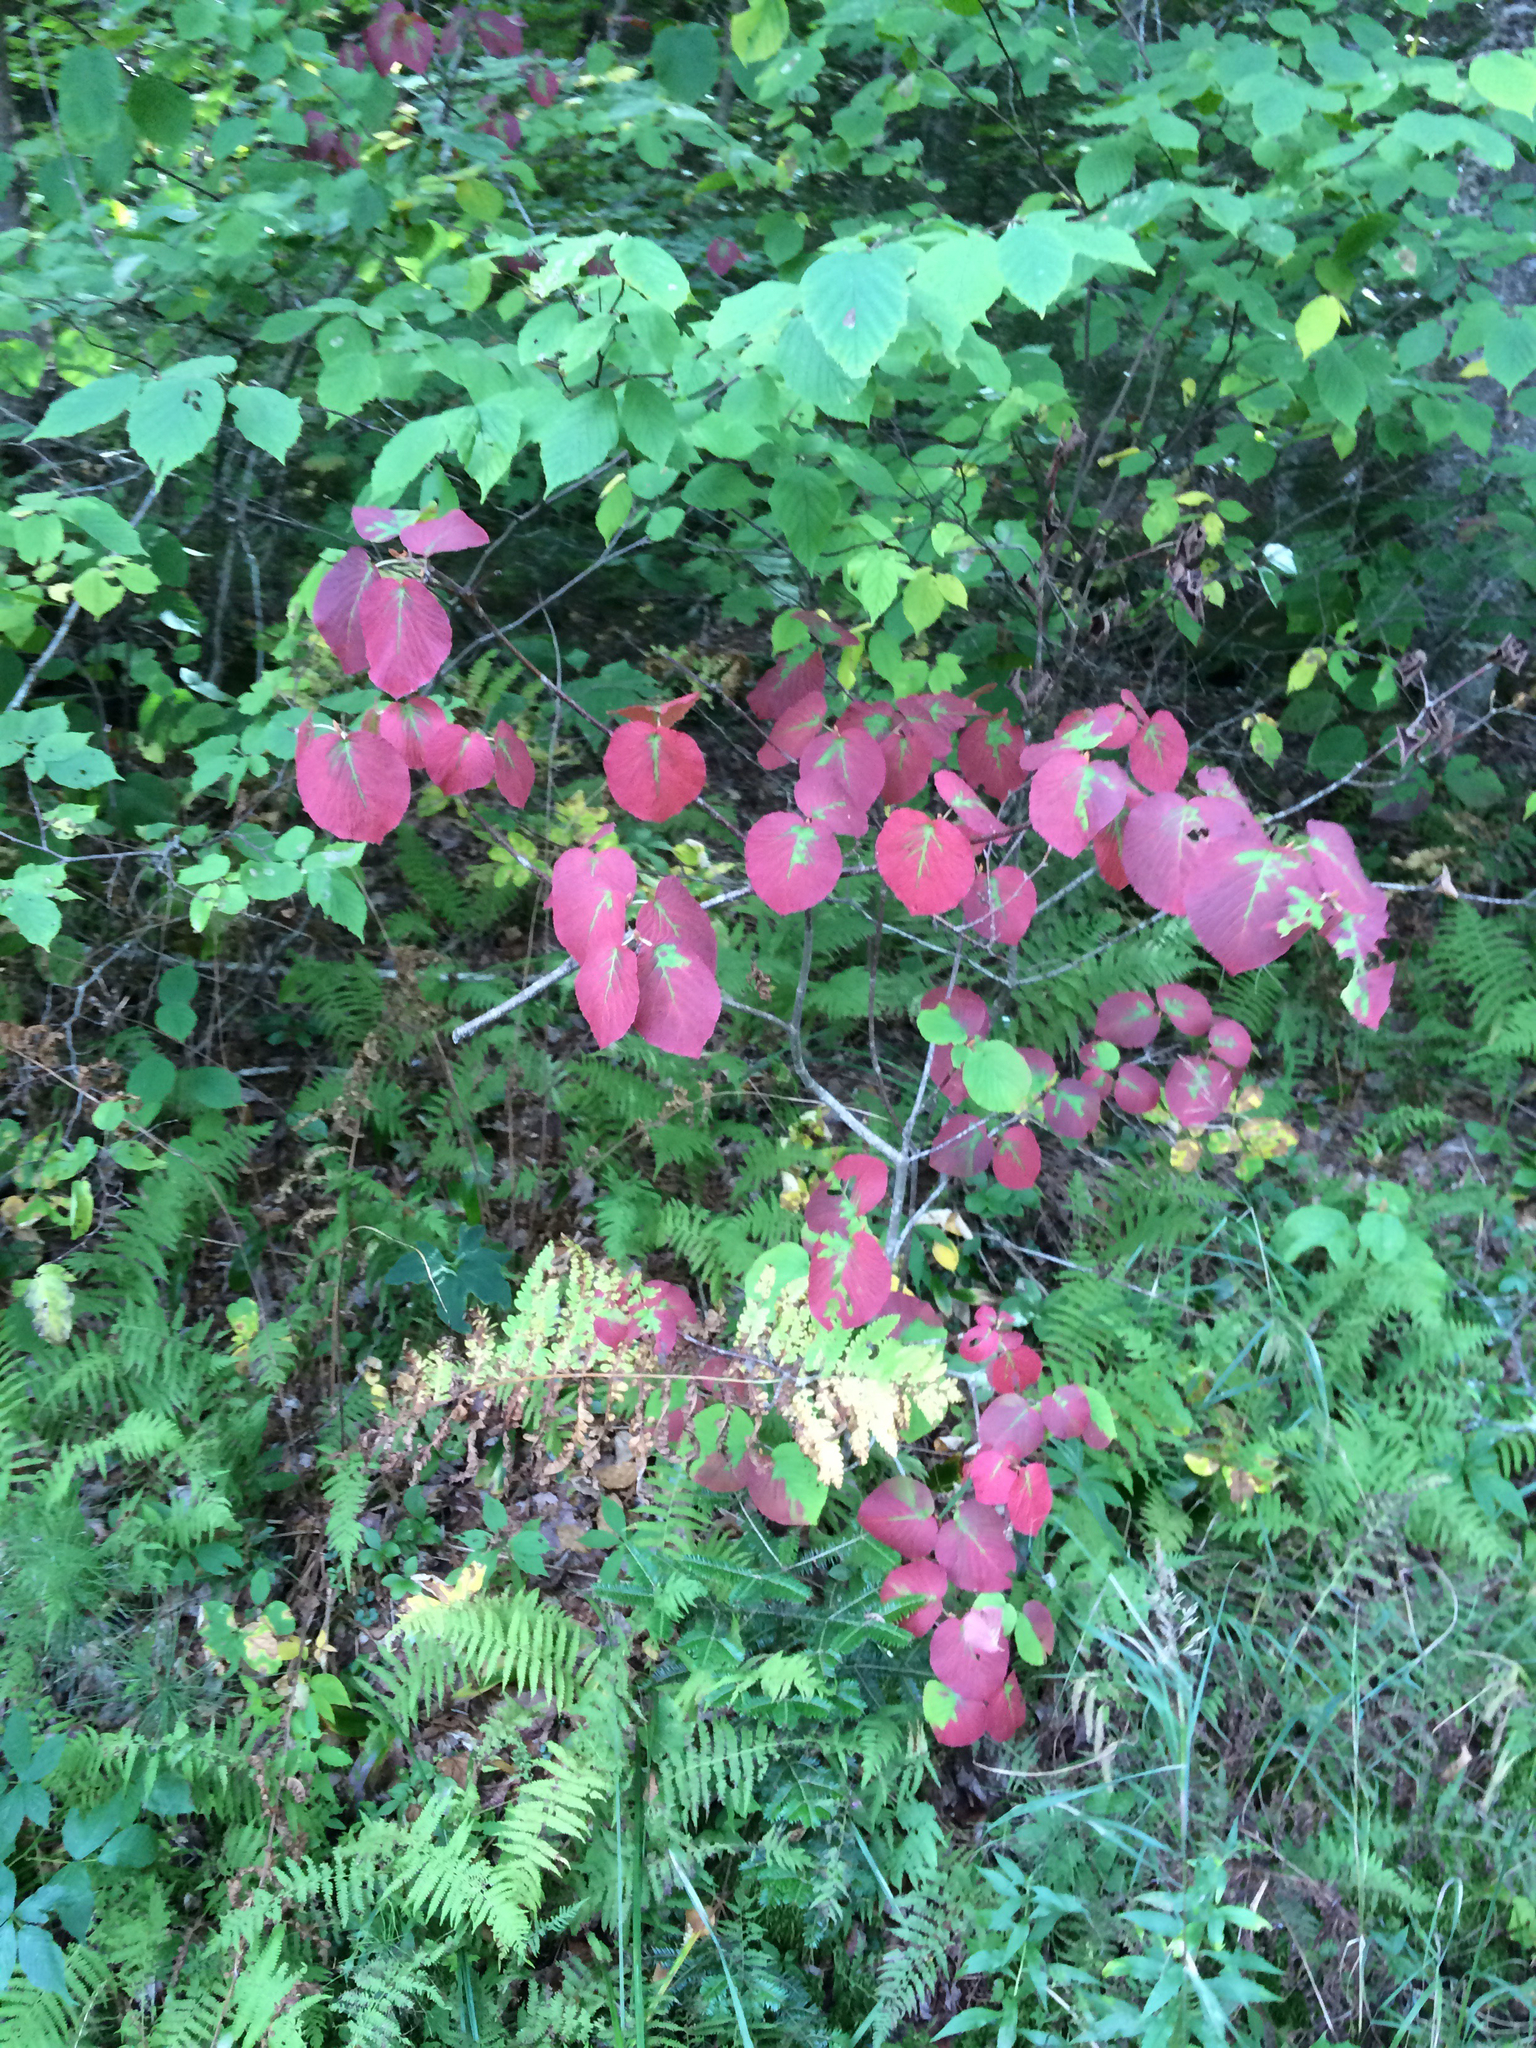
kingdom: Plantae
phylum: Tracheophyta
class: Magnoliopsida
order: Dipsacales
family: Viburnaceae
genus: Viburnum
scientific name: Viburnum lantanoides
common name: Hobblebush
